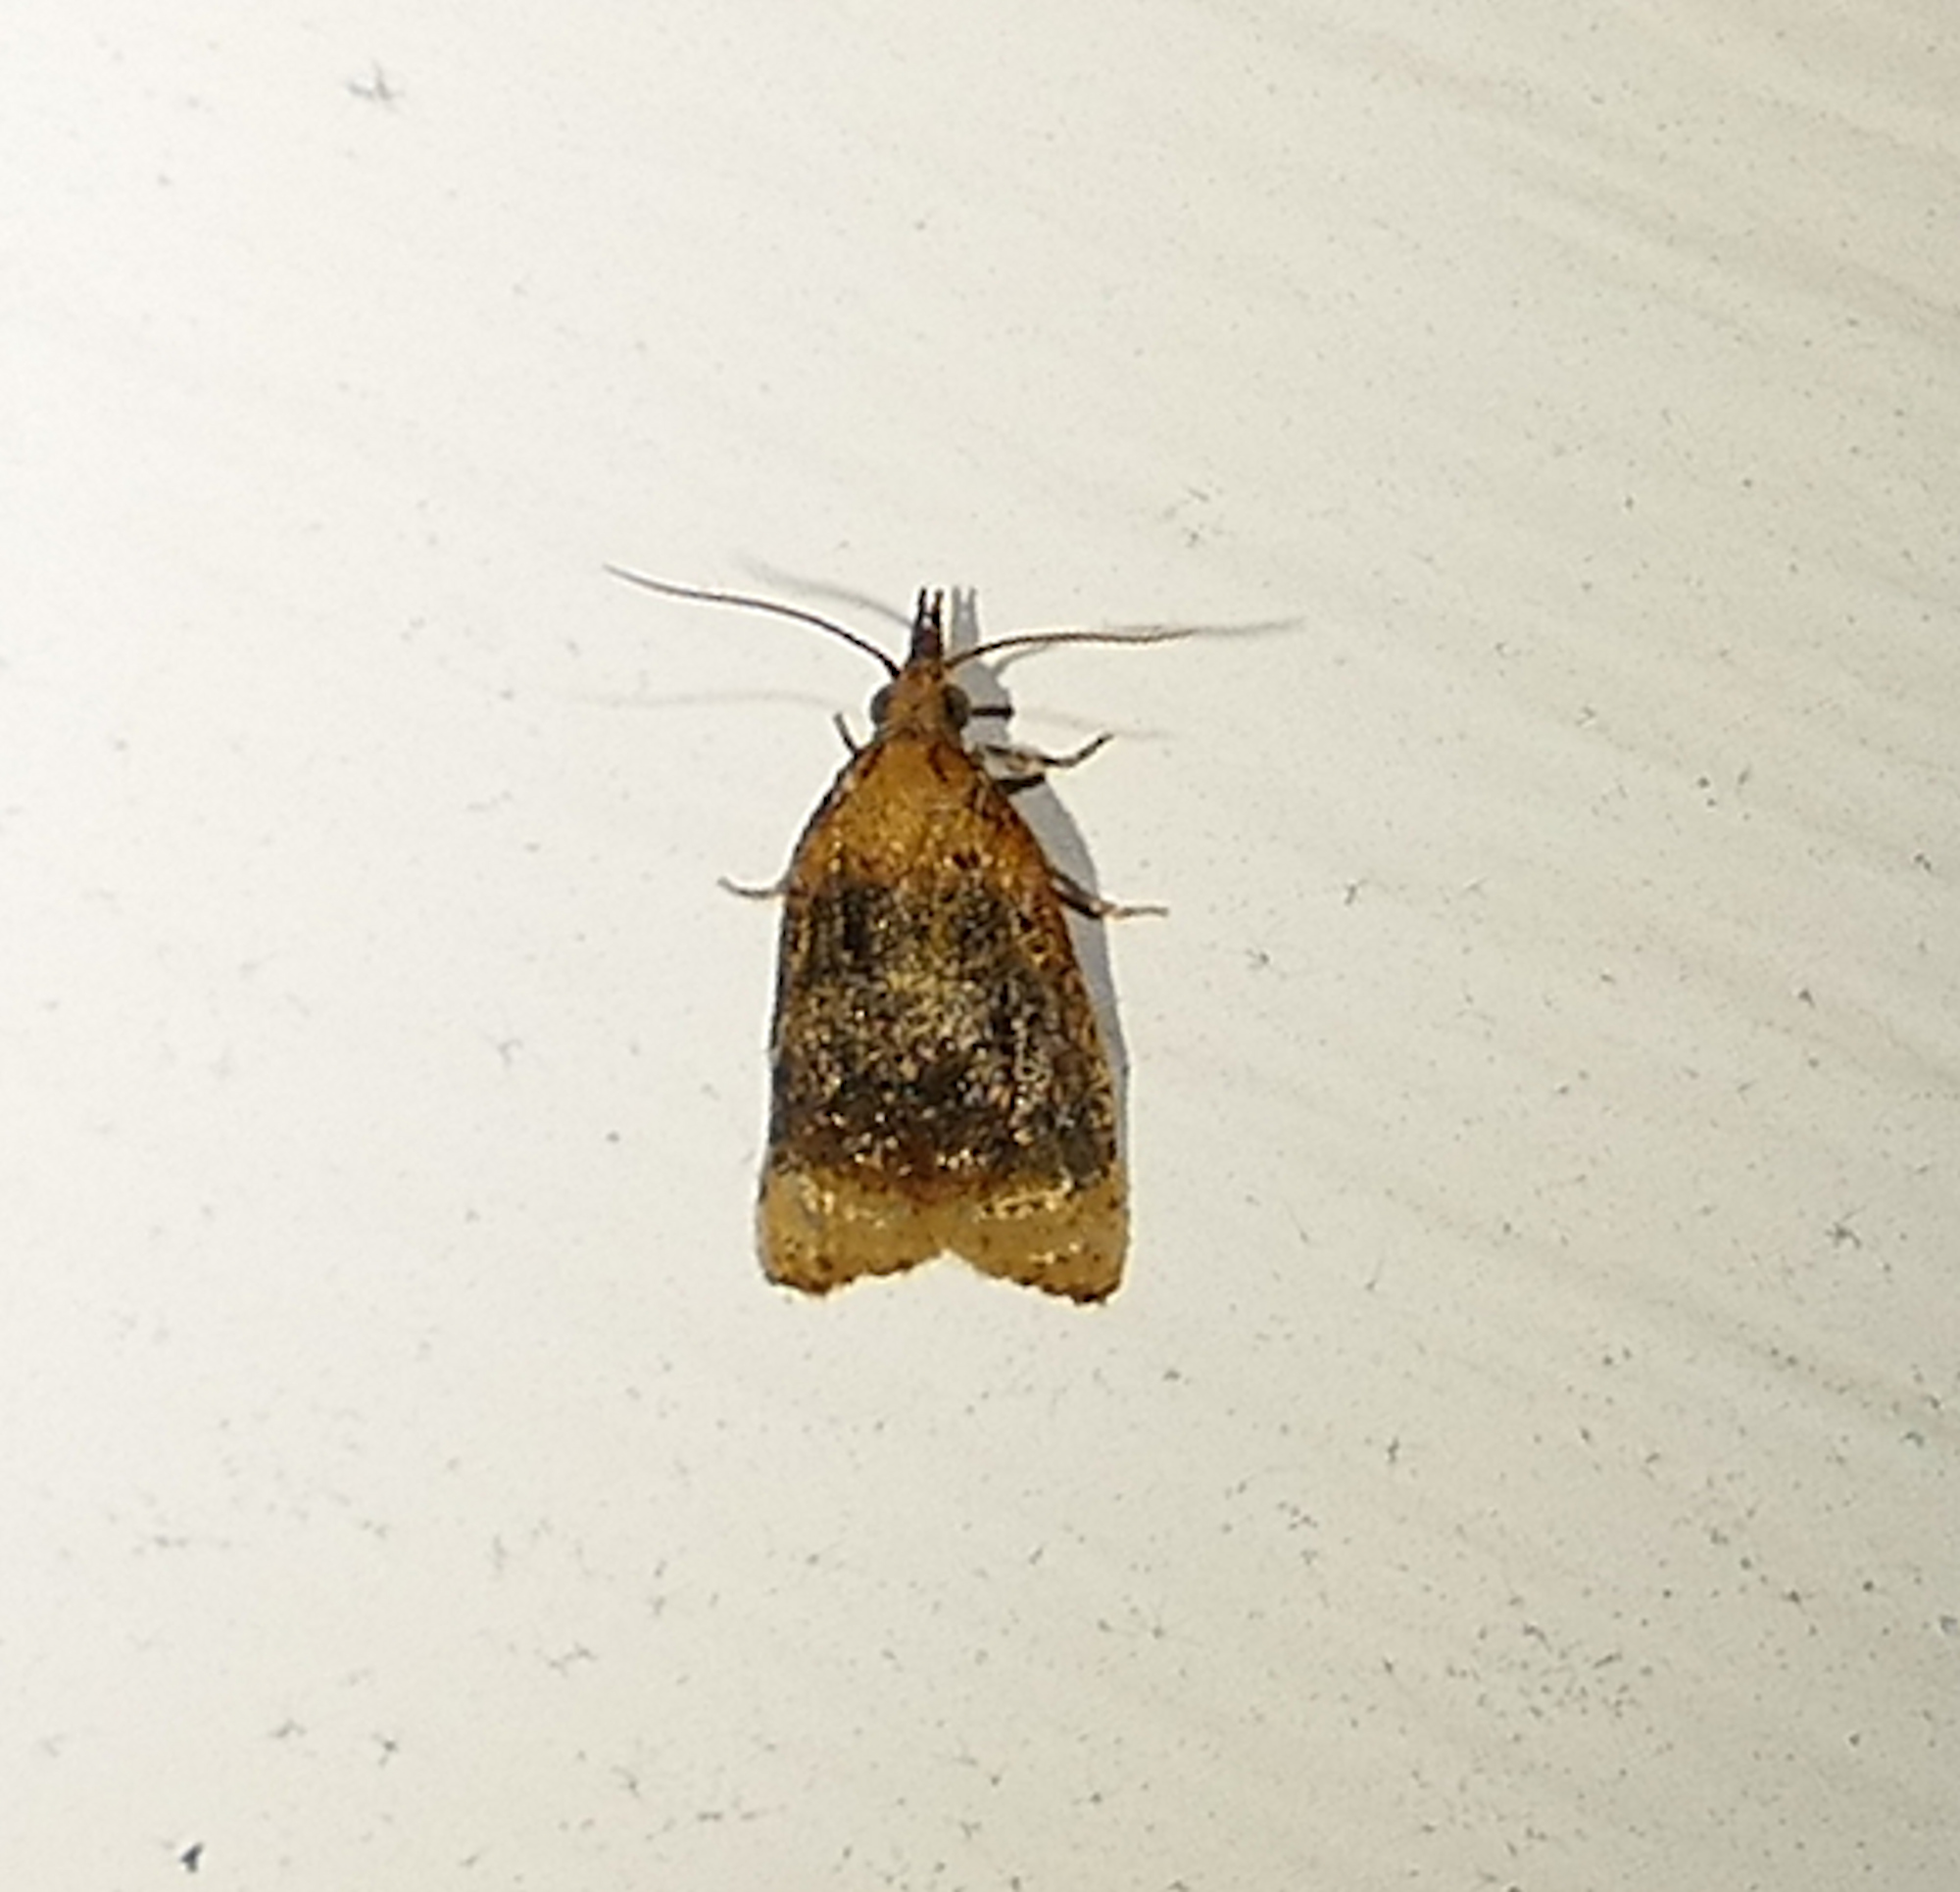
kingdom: Animalia
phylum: Arthropoda
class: Insecta
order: Lepidoptera
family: Tortricidae
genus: Platynota
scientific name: Platynota flavedana
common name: Black-shaded platynota moth
